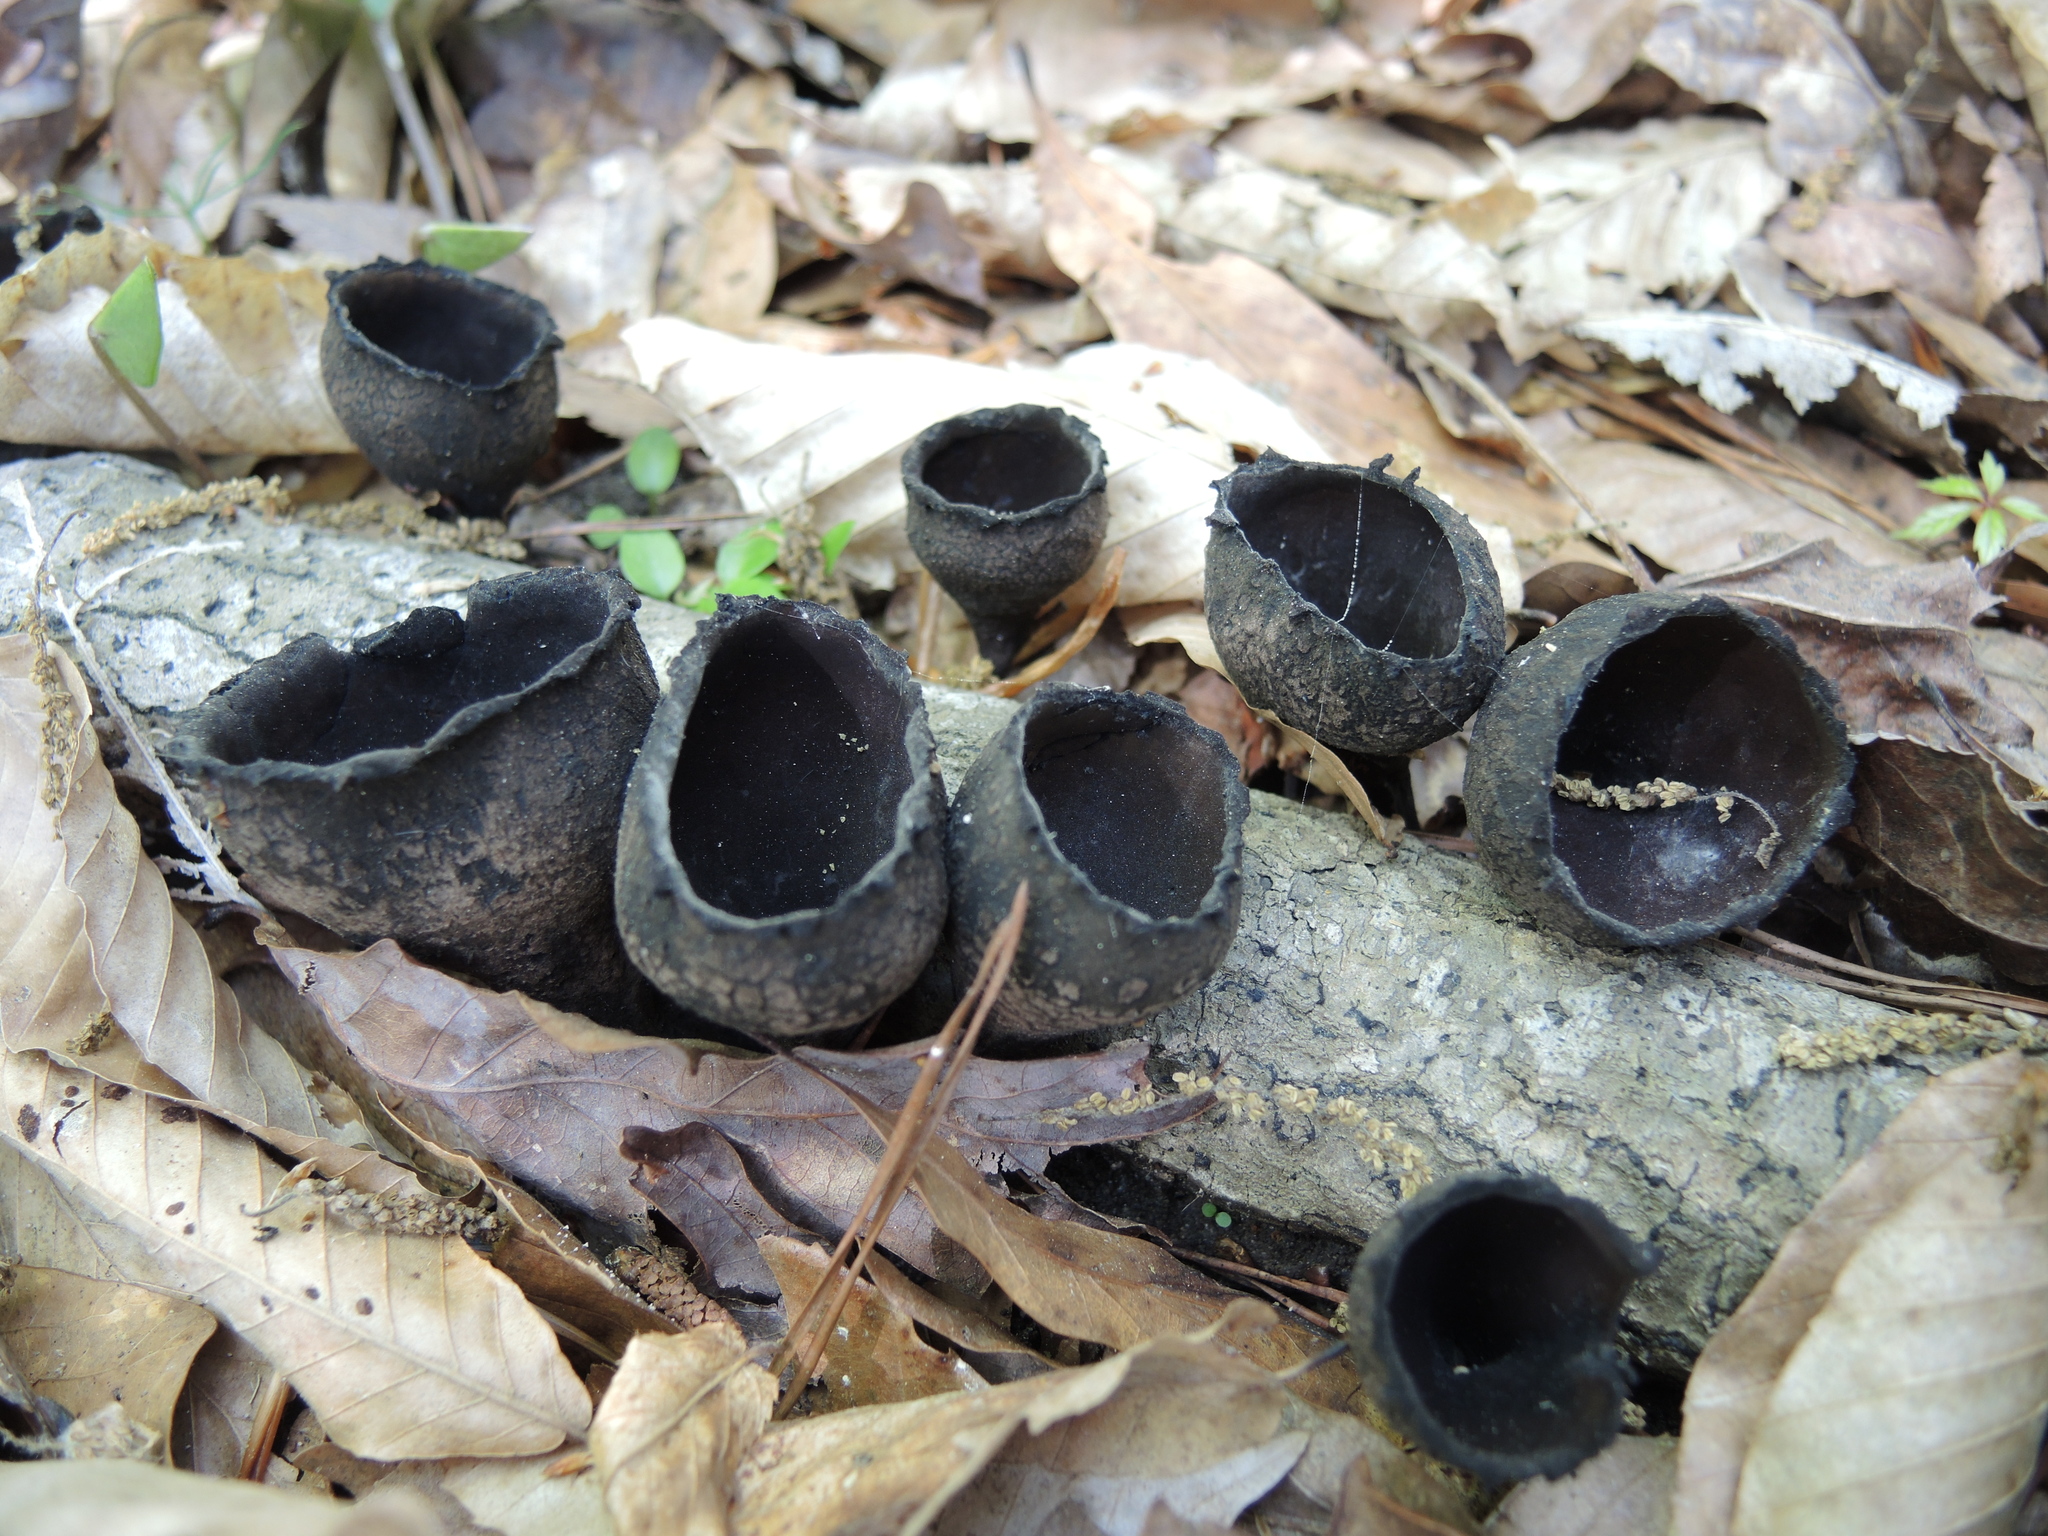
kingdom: Fungi
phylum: Ascomycota
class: Pezizomycetes
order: Pezizales
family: Sarcosomataceae
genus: Urnula
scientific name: Urnula craterium
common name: Devil's urn
